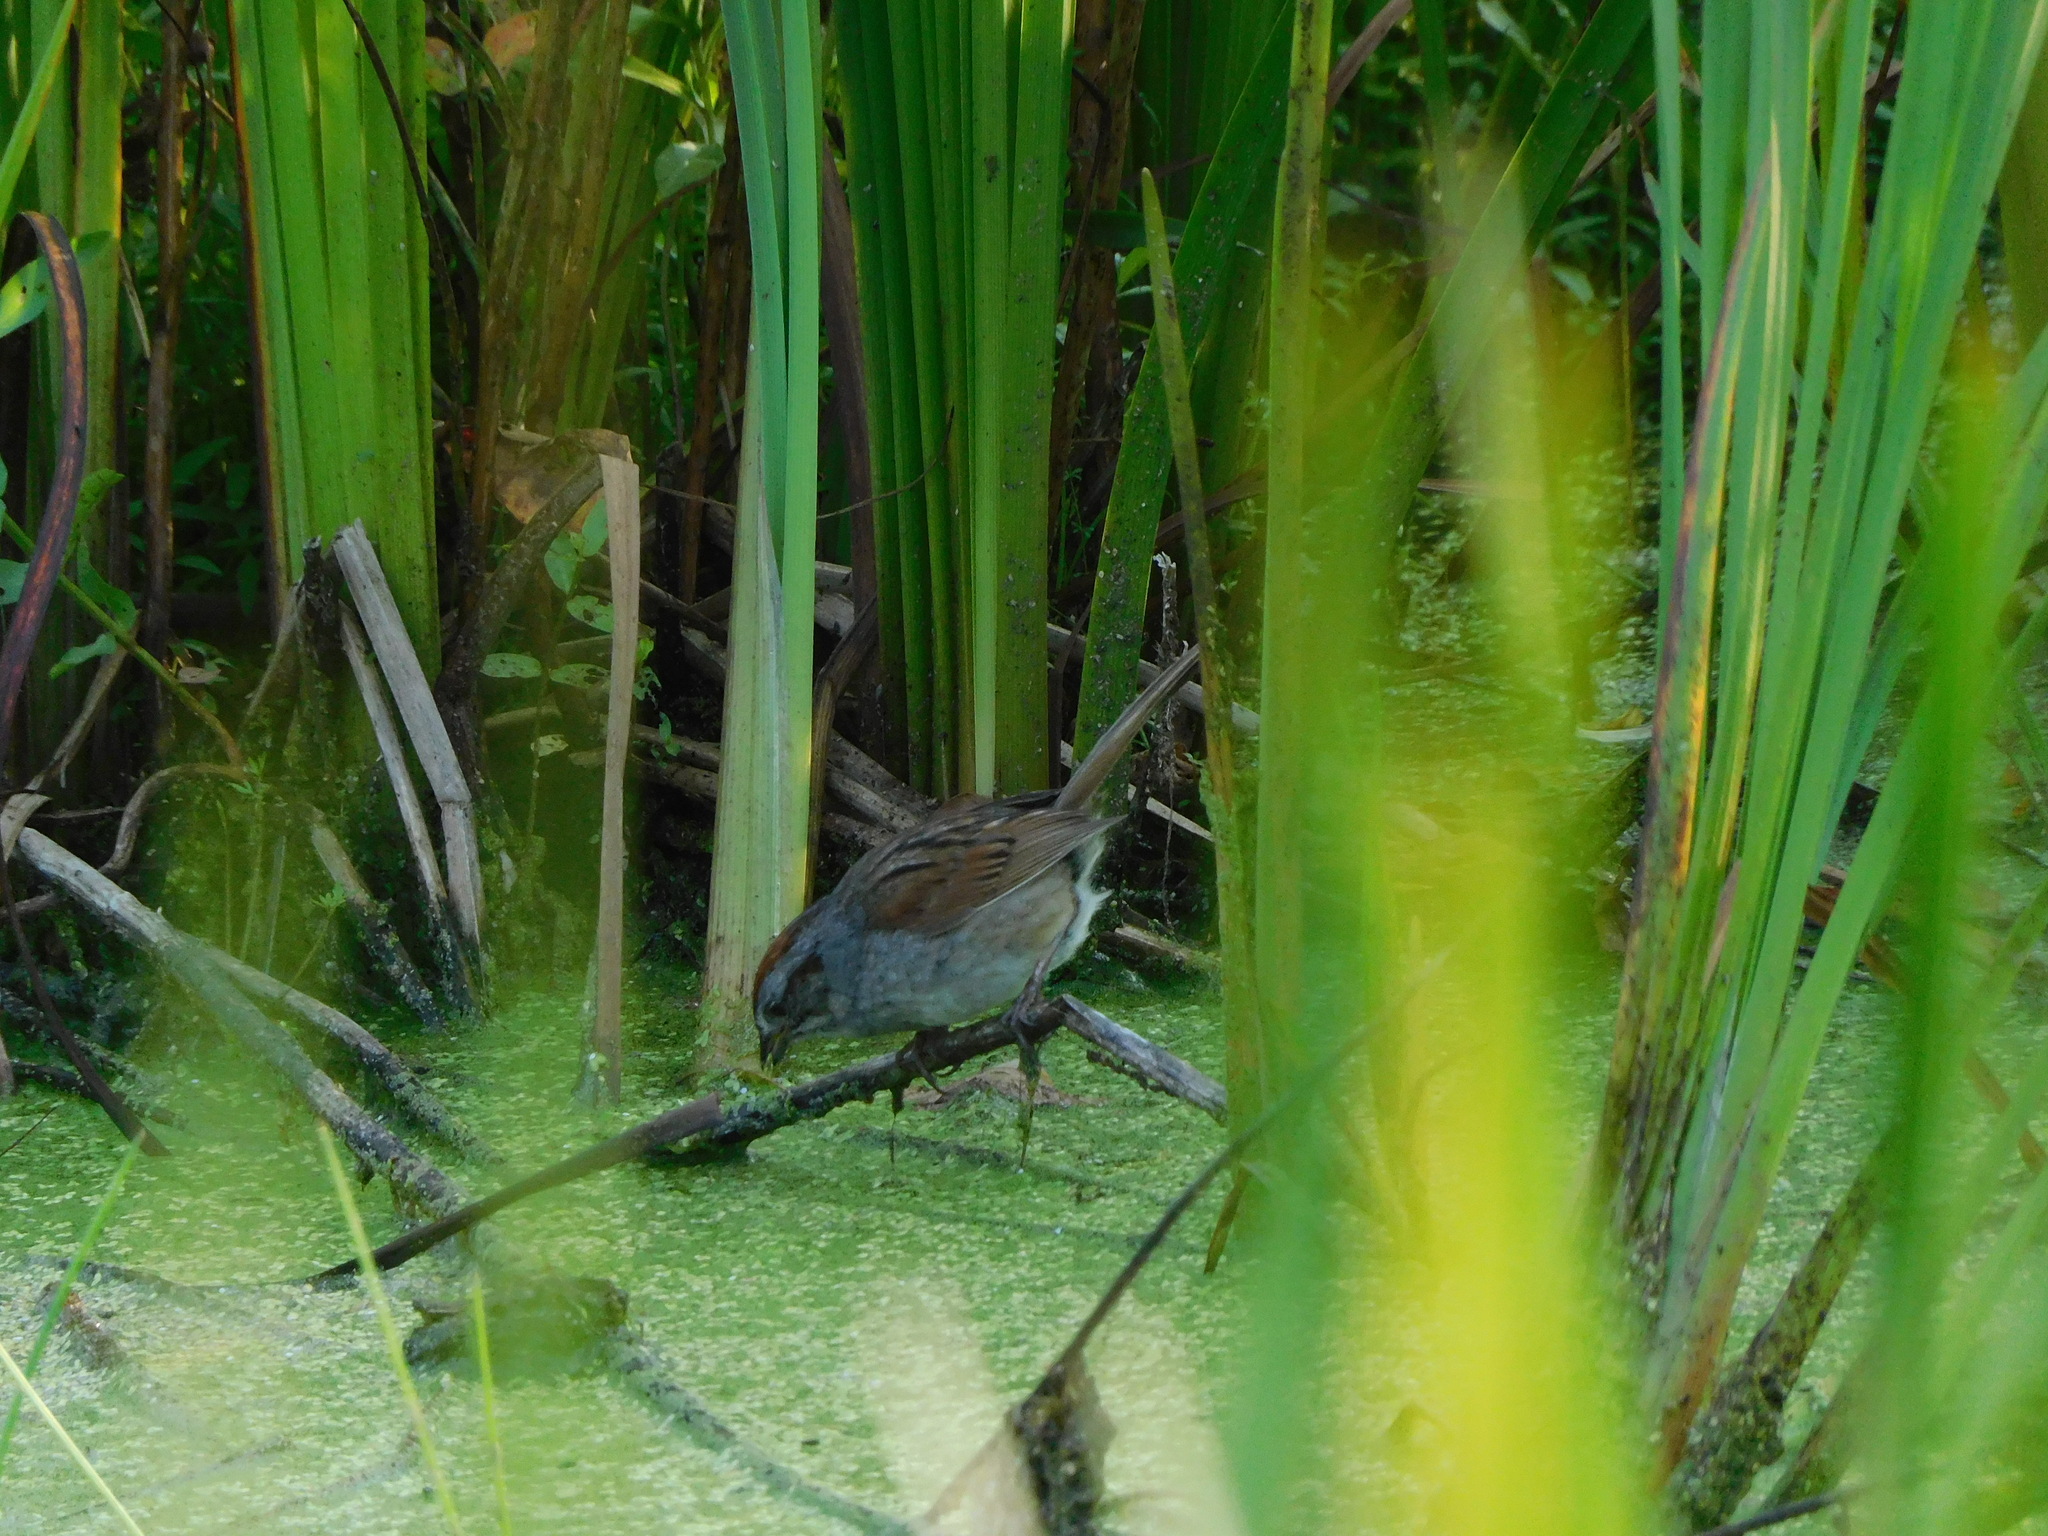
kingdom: Animalia
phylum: Chordata
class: Aves
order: Passeriformes
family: Passerellidae
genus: Melospiza
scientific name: Melospiza georgiana
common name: Swamp sparrow
